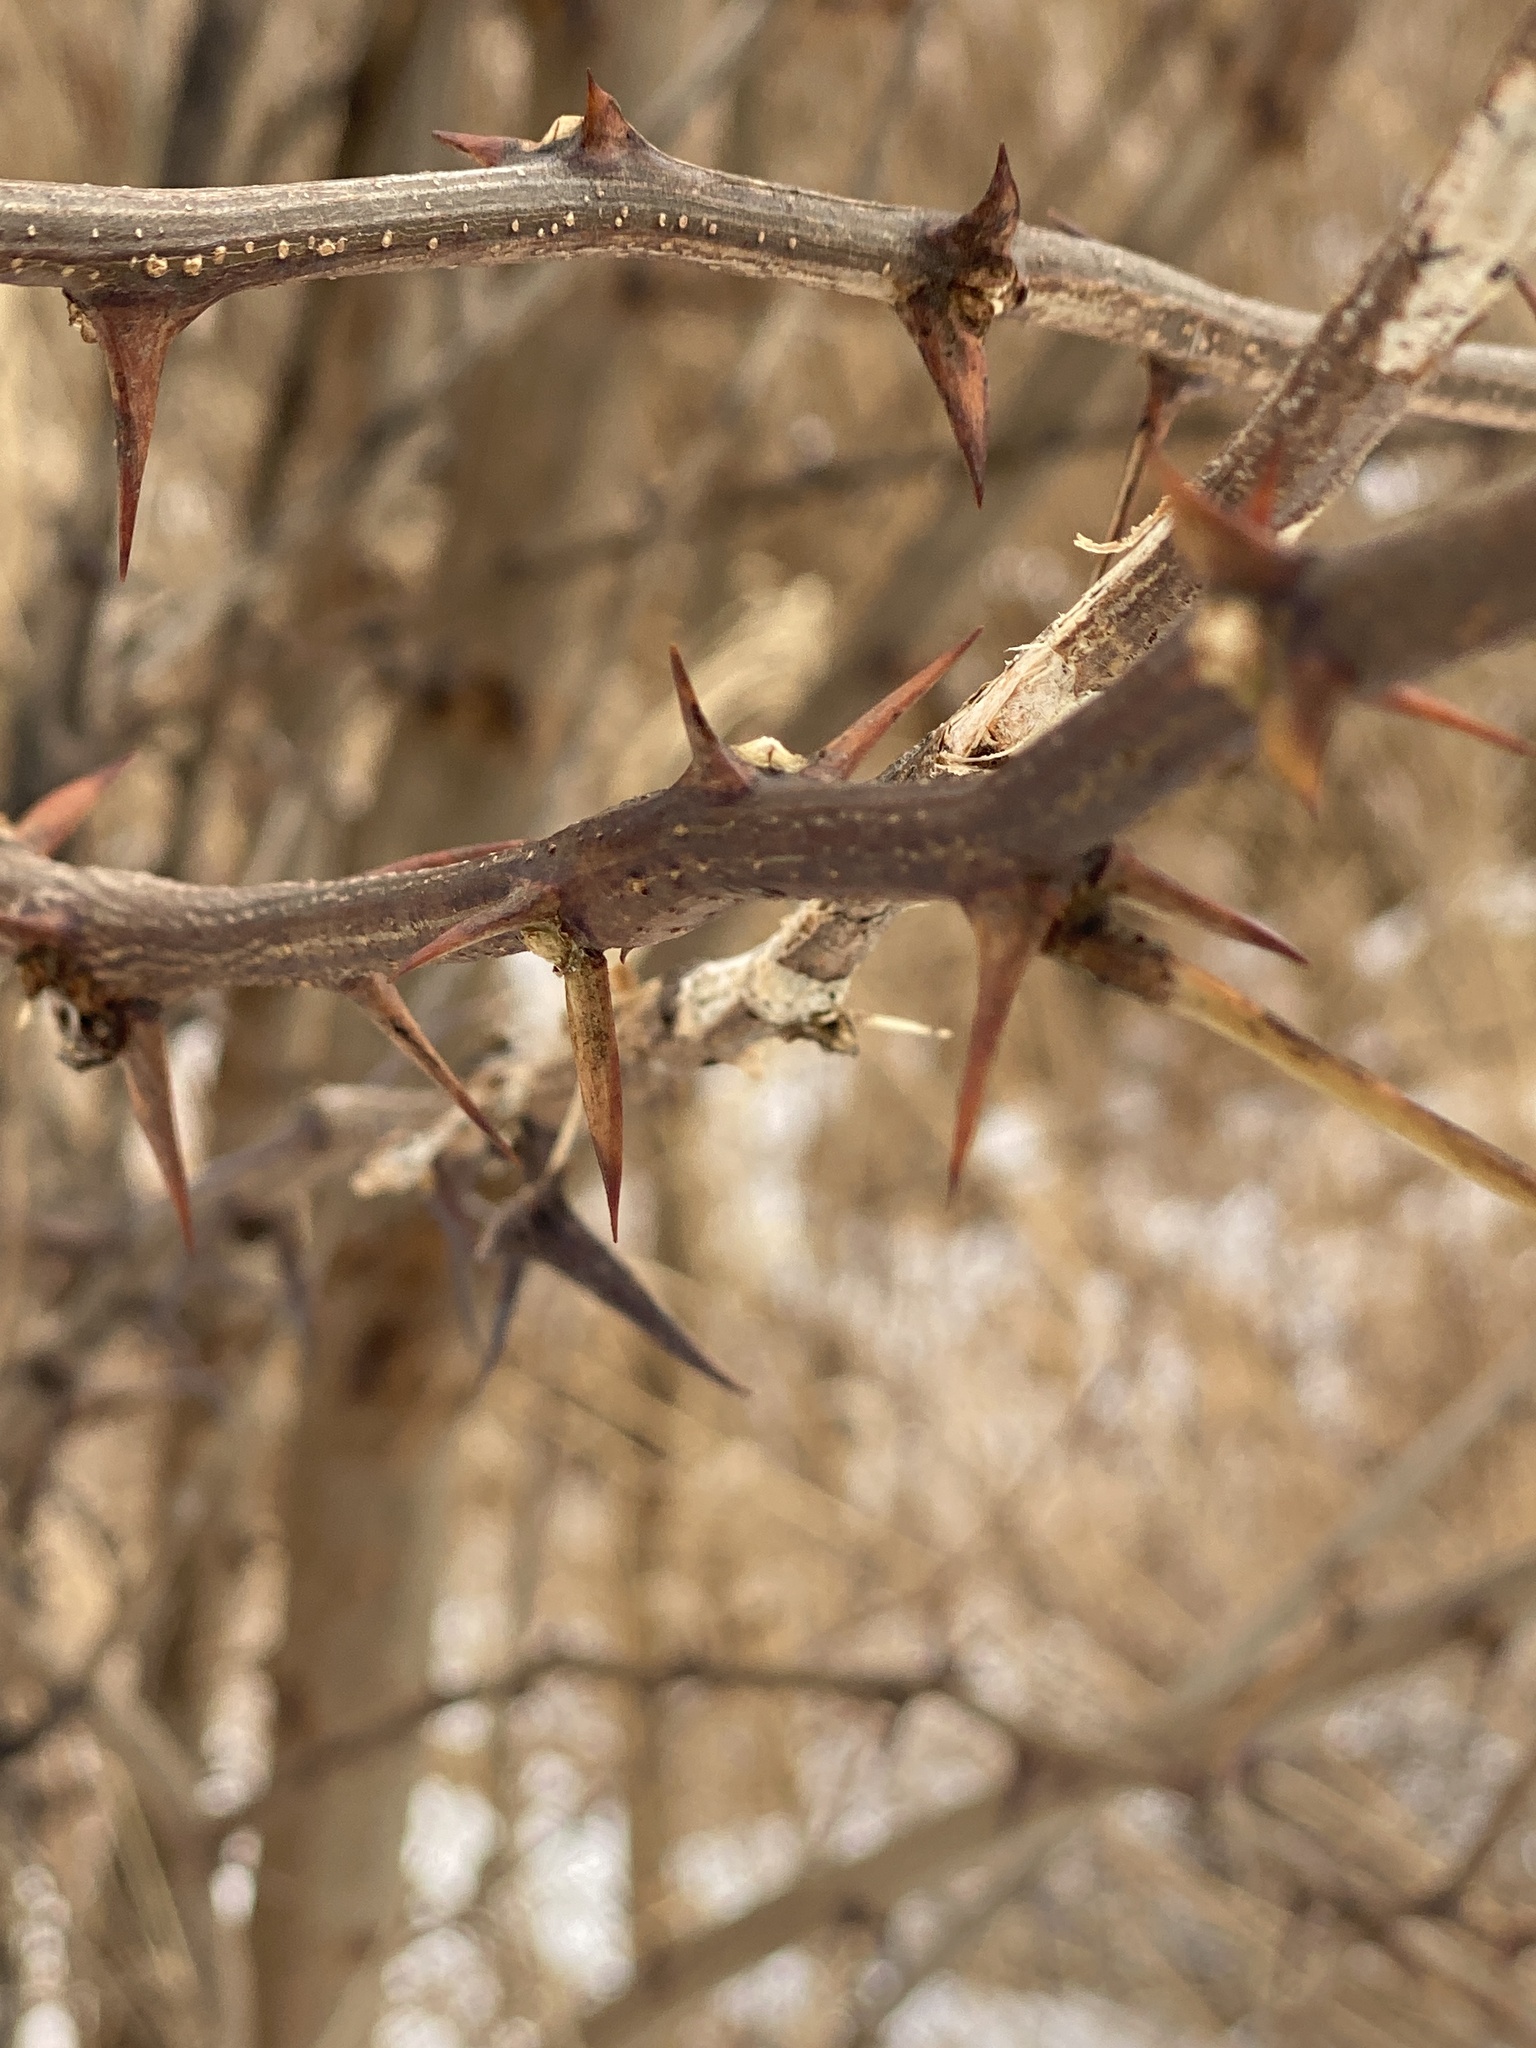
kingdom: Plantae
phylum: Tracheophyta
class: Magnoliopsida
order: Fabales
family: Fabaceae
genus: Robinia
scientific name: Robinia pseudoacacia
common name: Black locust
